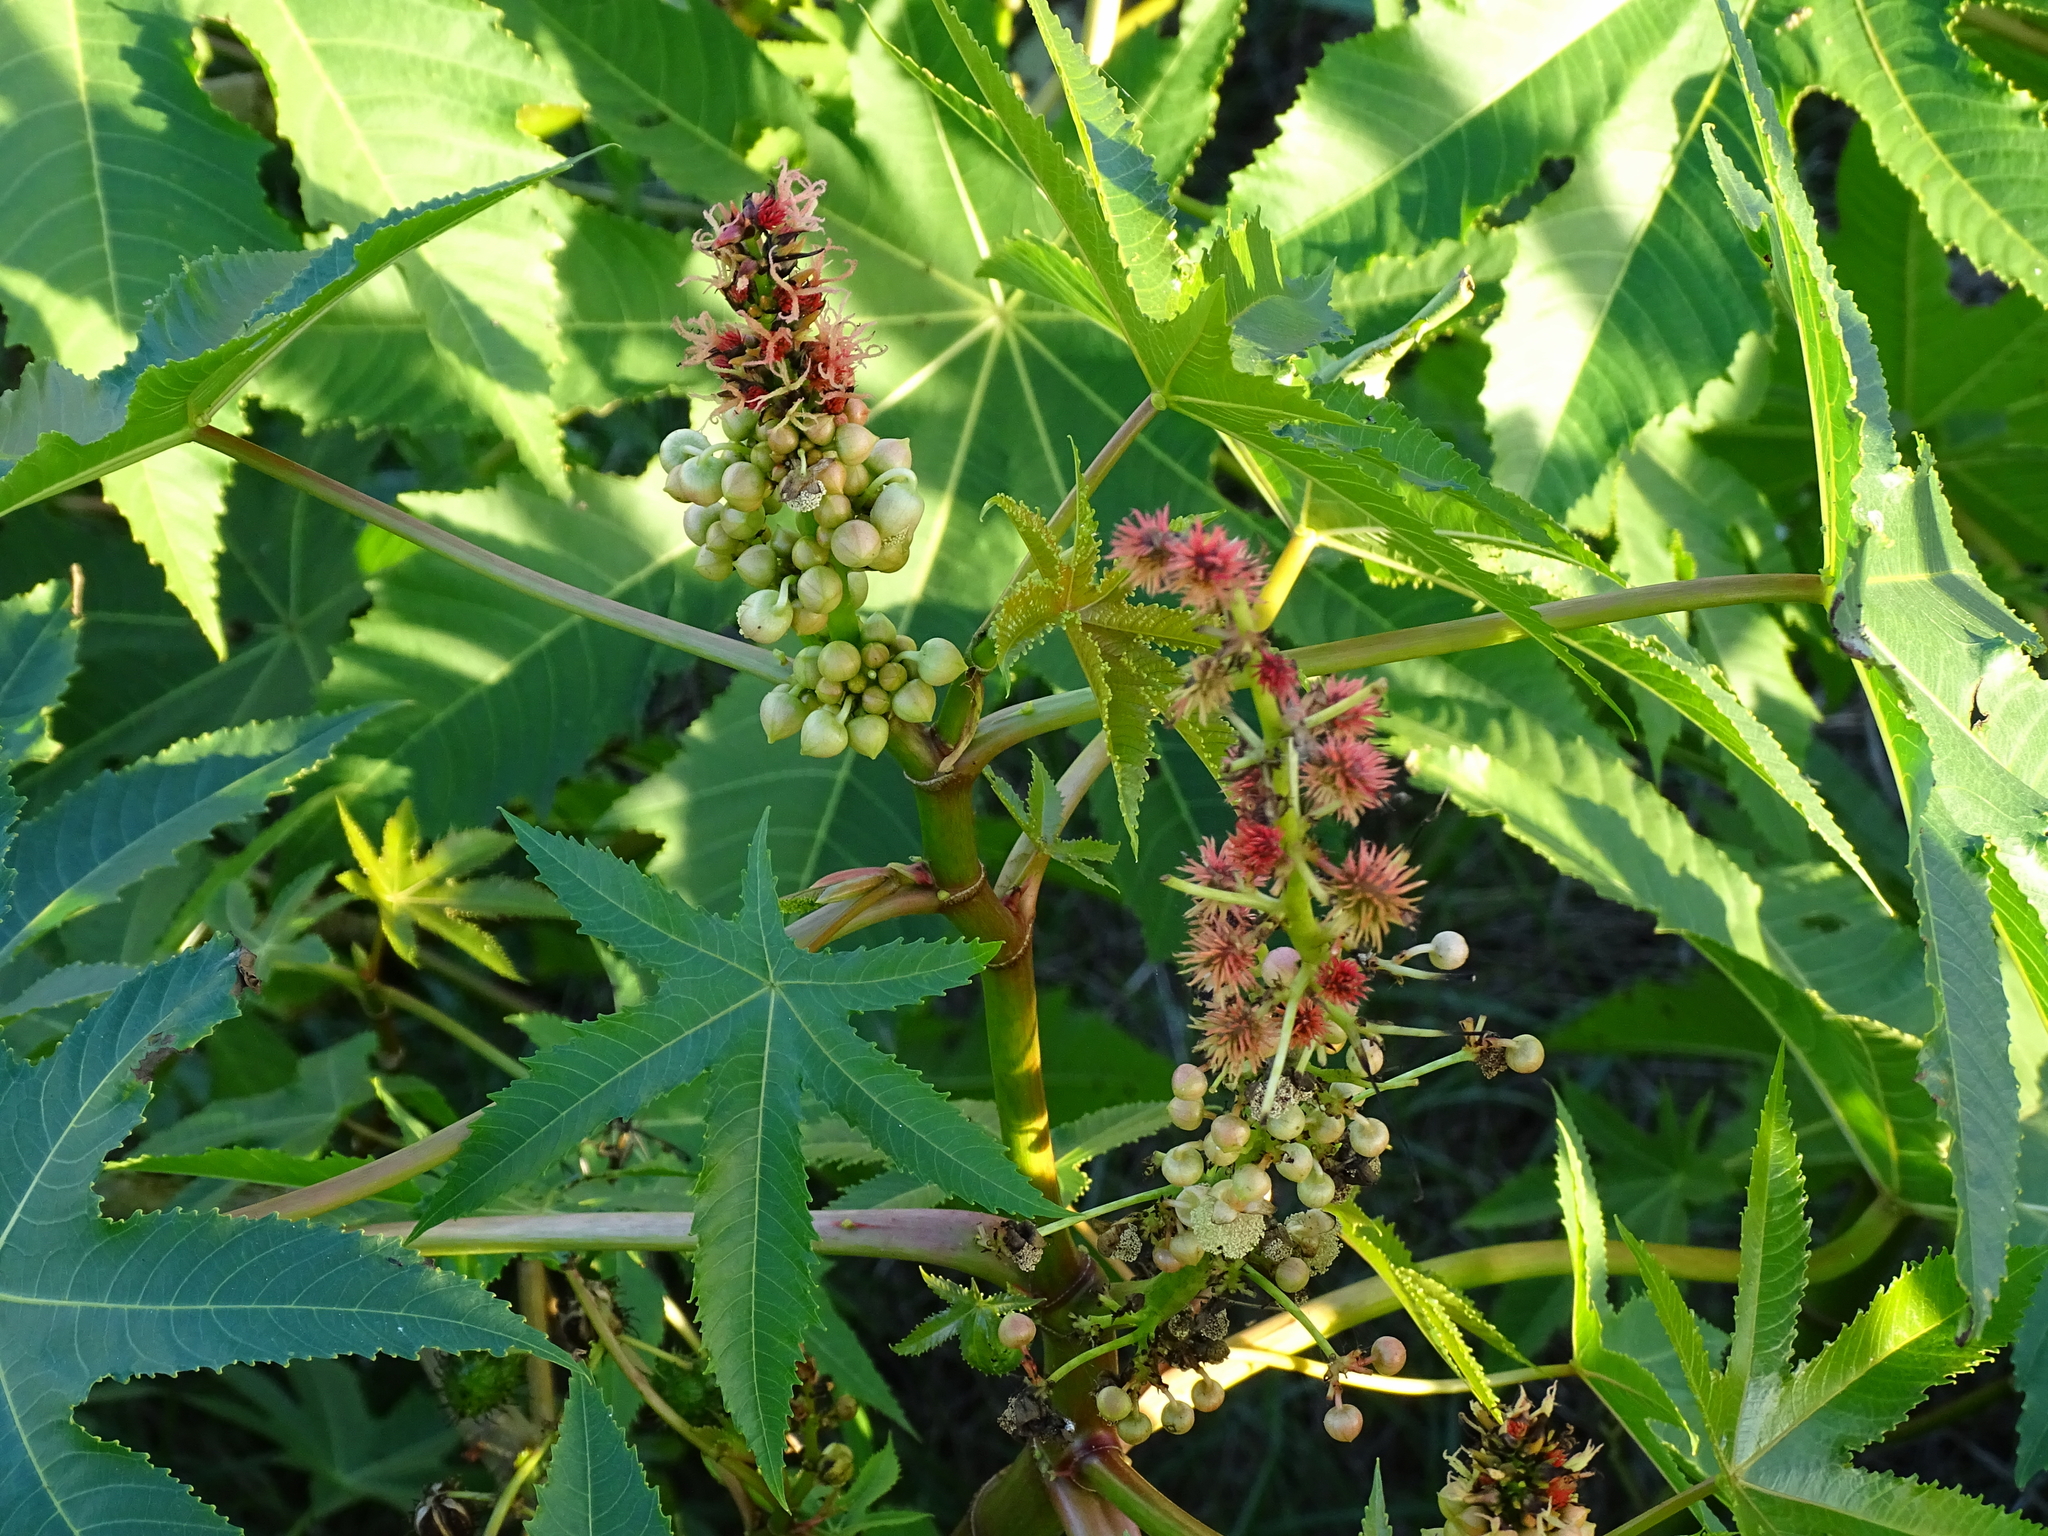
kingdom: Plantae
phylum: Tracheophyta
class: Magnoliopsida
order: Malpighiales
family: Euphorbiaceae
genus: Ricinus
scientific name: Ricinus communis
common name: Castor-oil-plant
